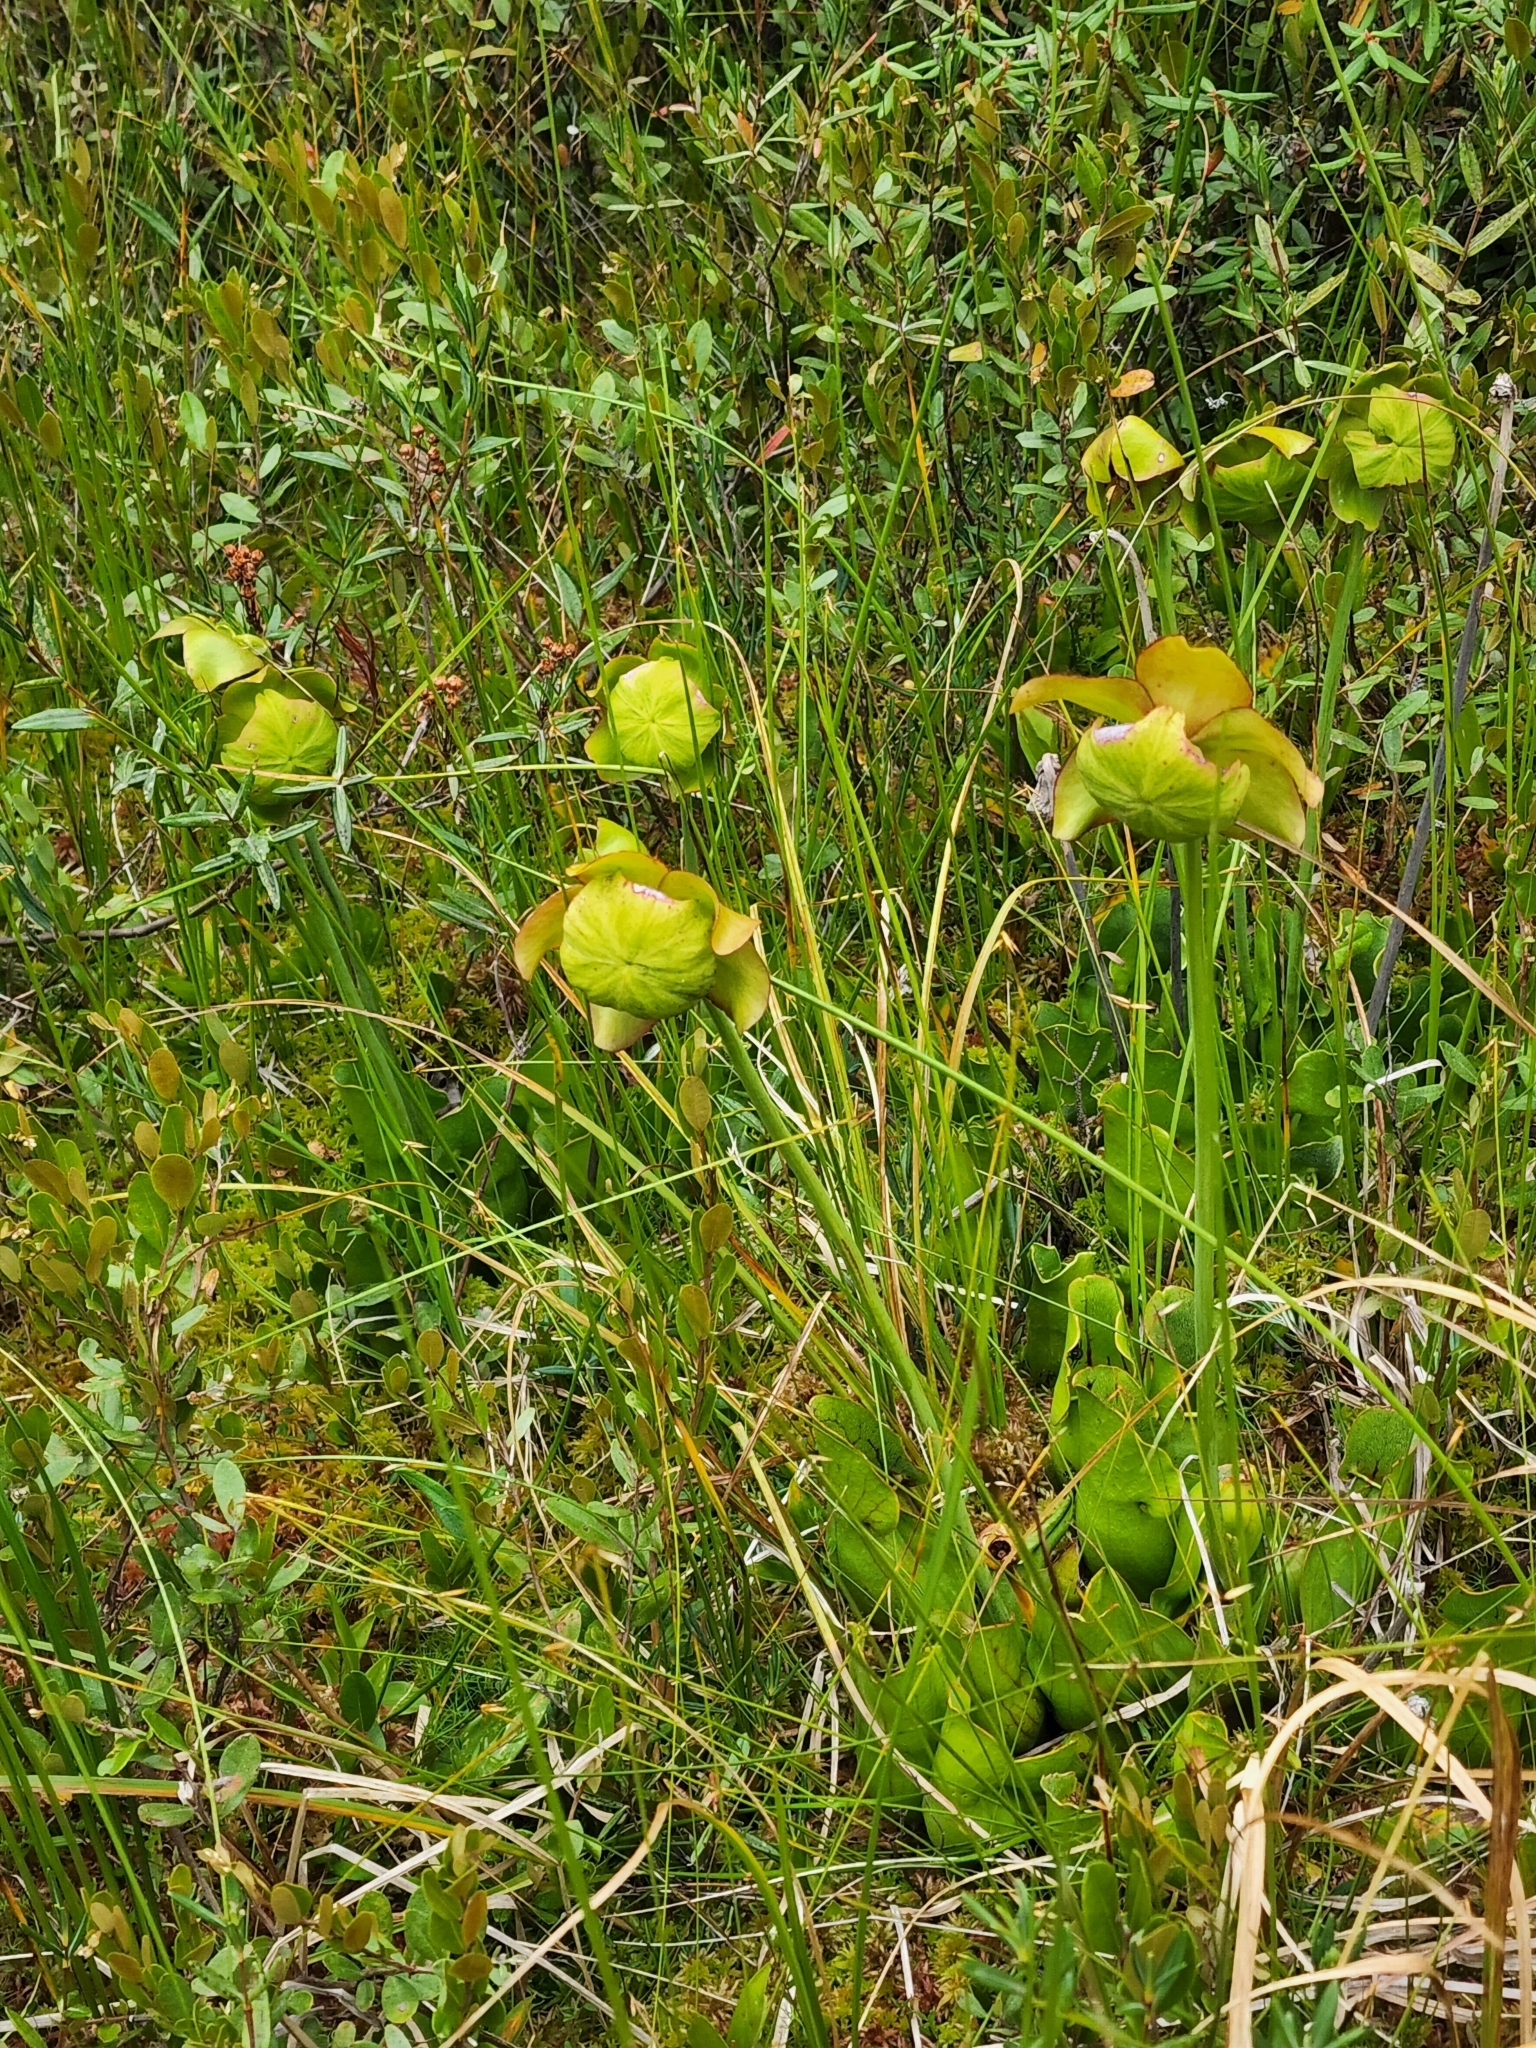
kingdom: Plantae
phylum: Tracheophyta
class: Magnoliopsida
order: Ericales
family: Sarraceniaceae
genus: Sarracenia
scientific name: Sarracenia purpurea
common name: Pitcherplant
